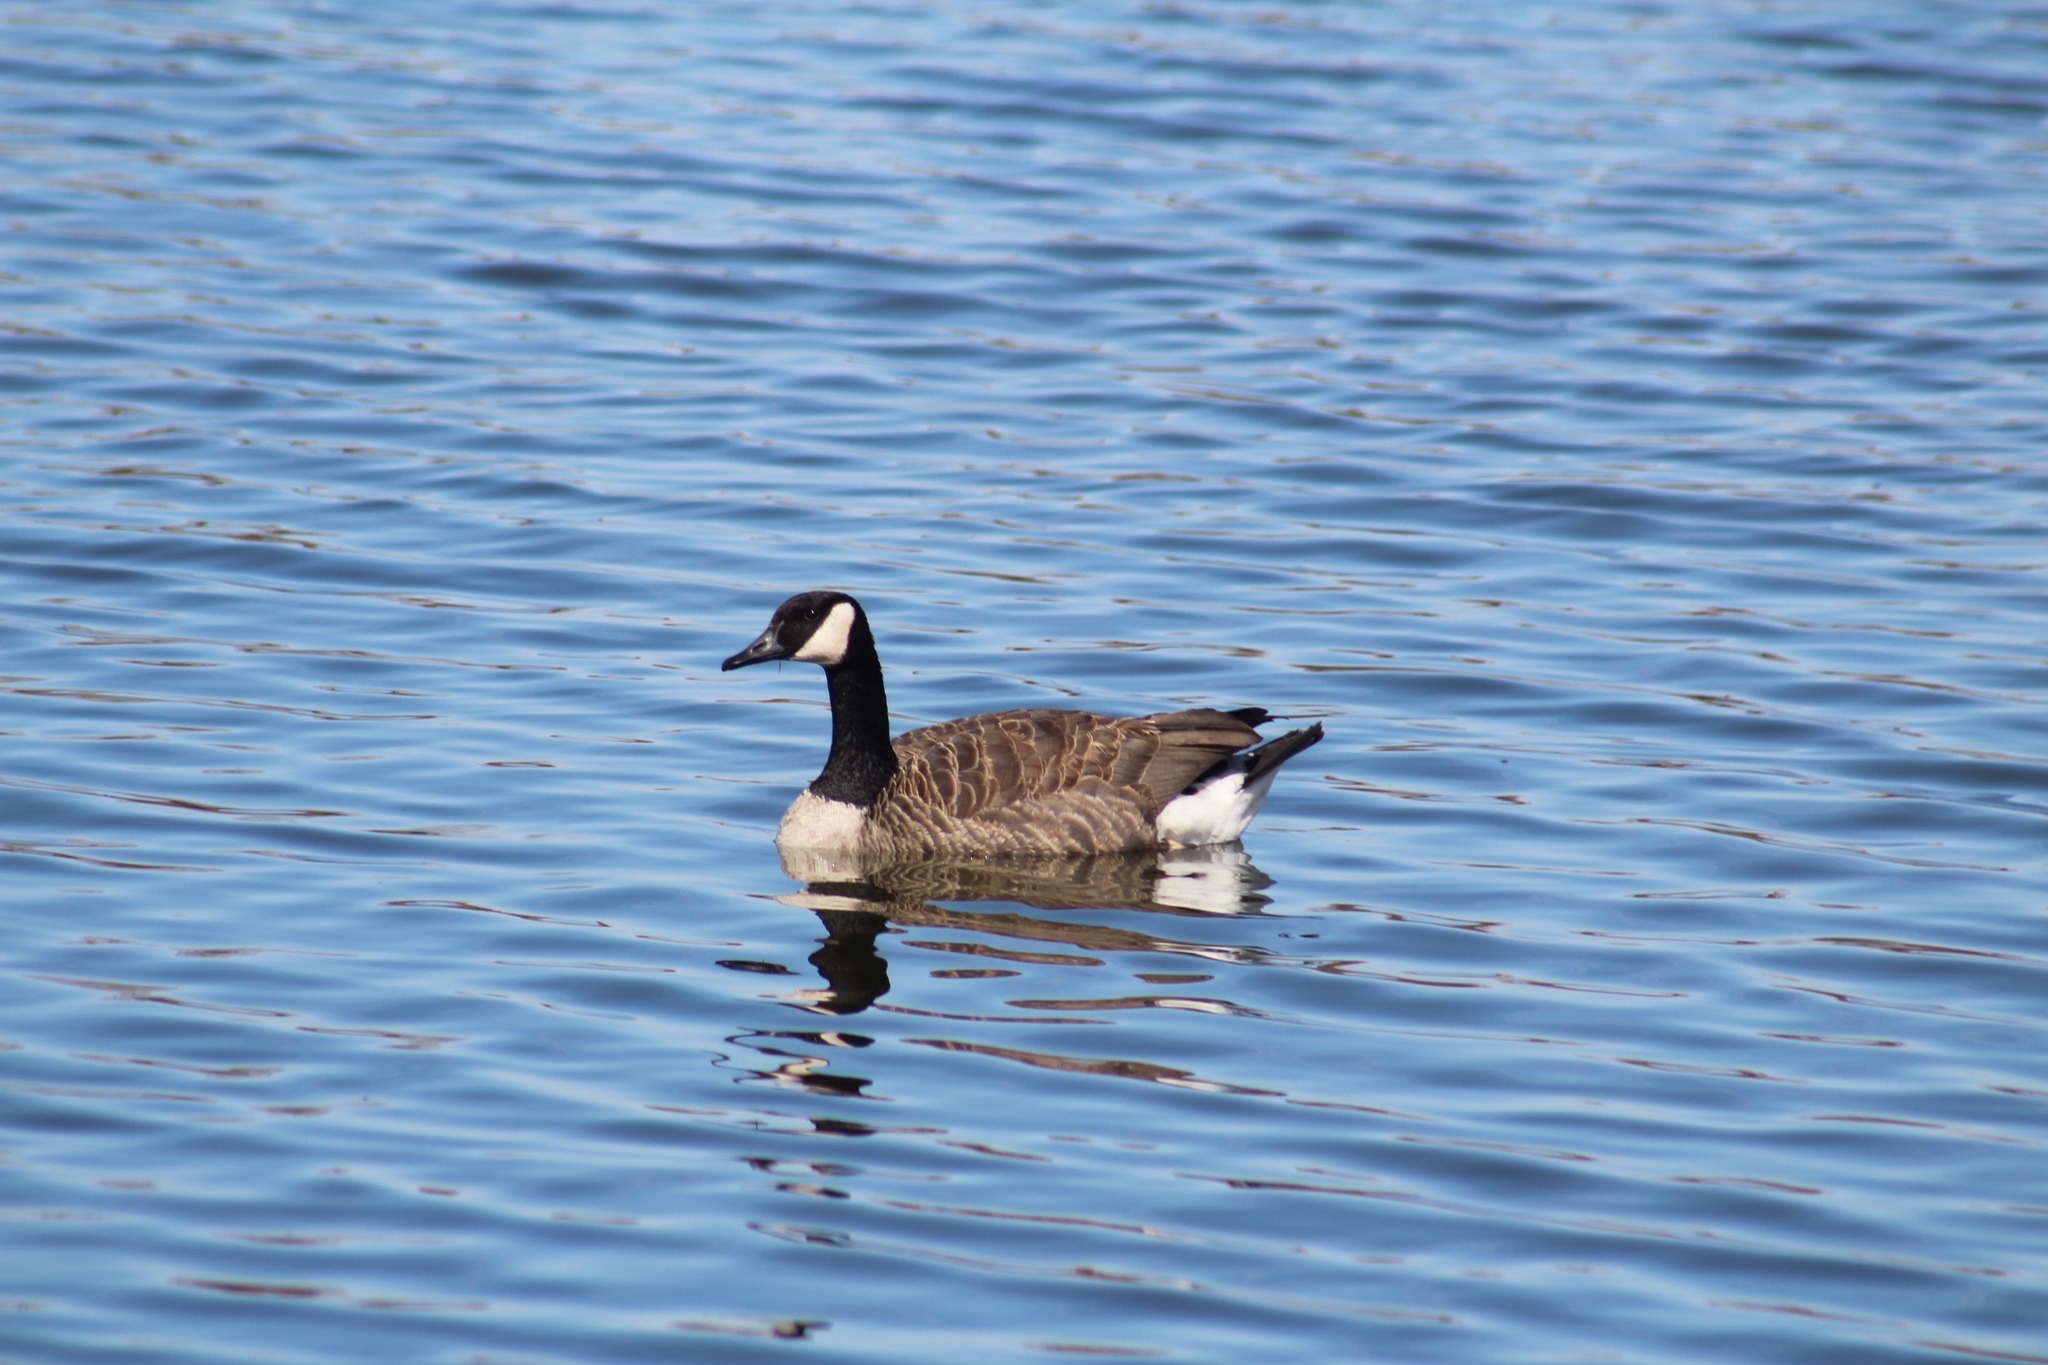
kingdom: Animalia
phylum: Chordata
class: Aves
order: Anseriformes
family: Anatidae
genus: Branta
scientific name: Branta canadensis
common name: Canada goose
